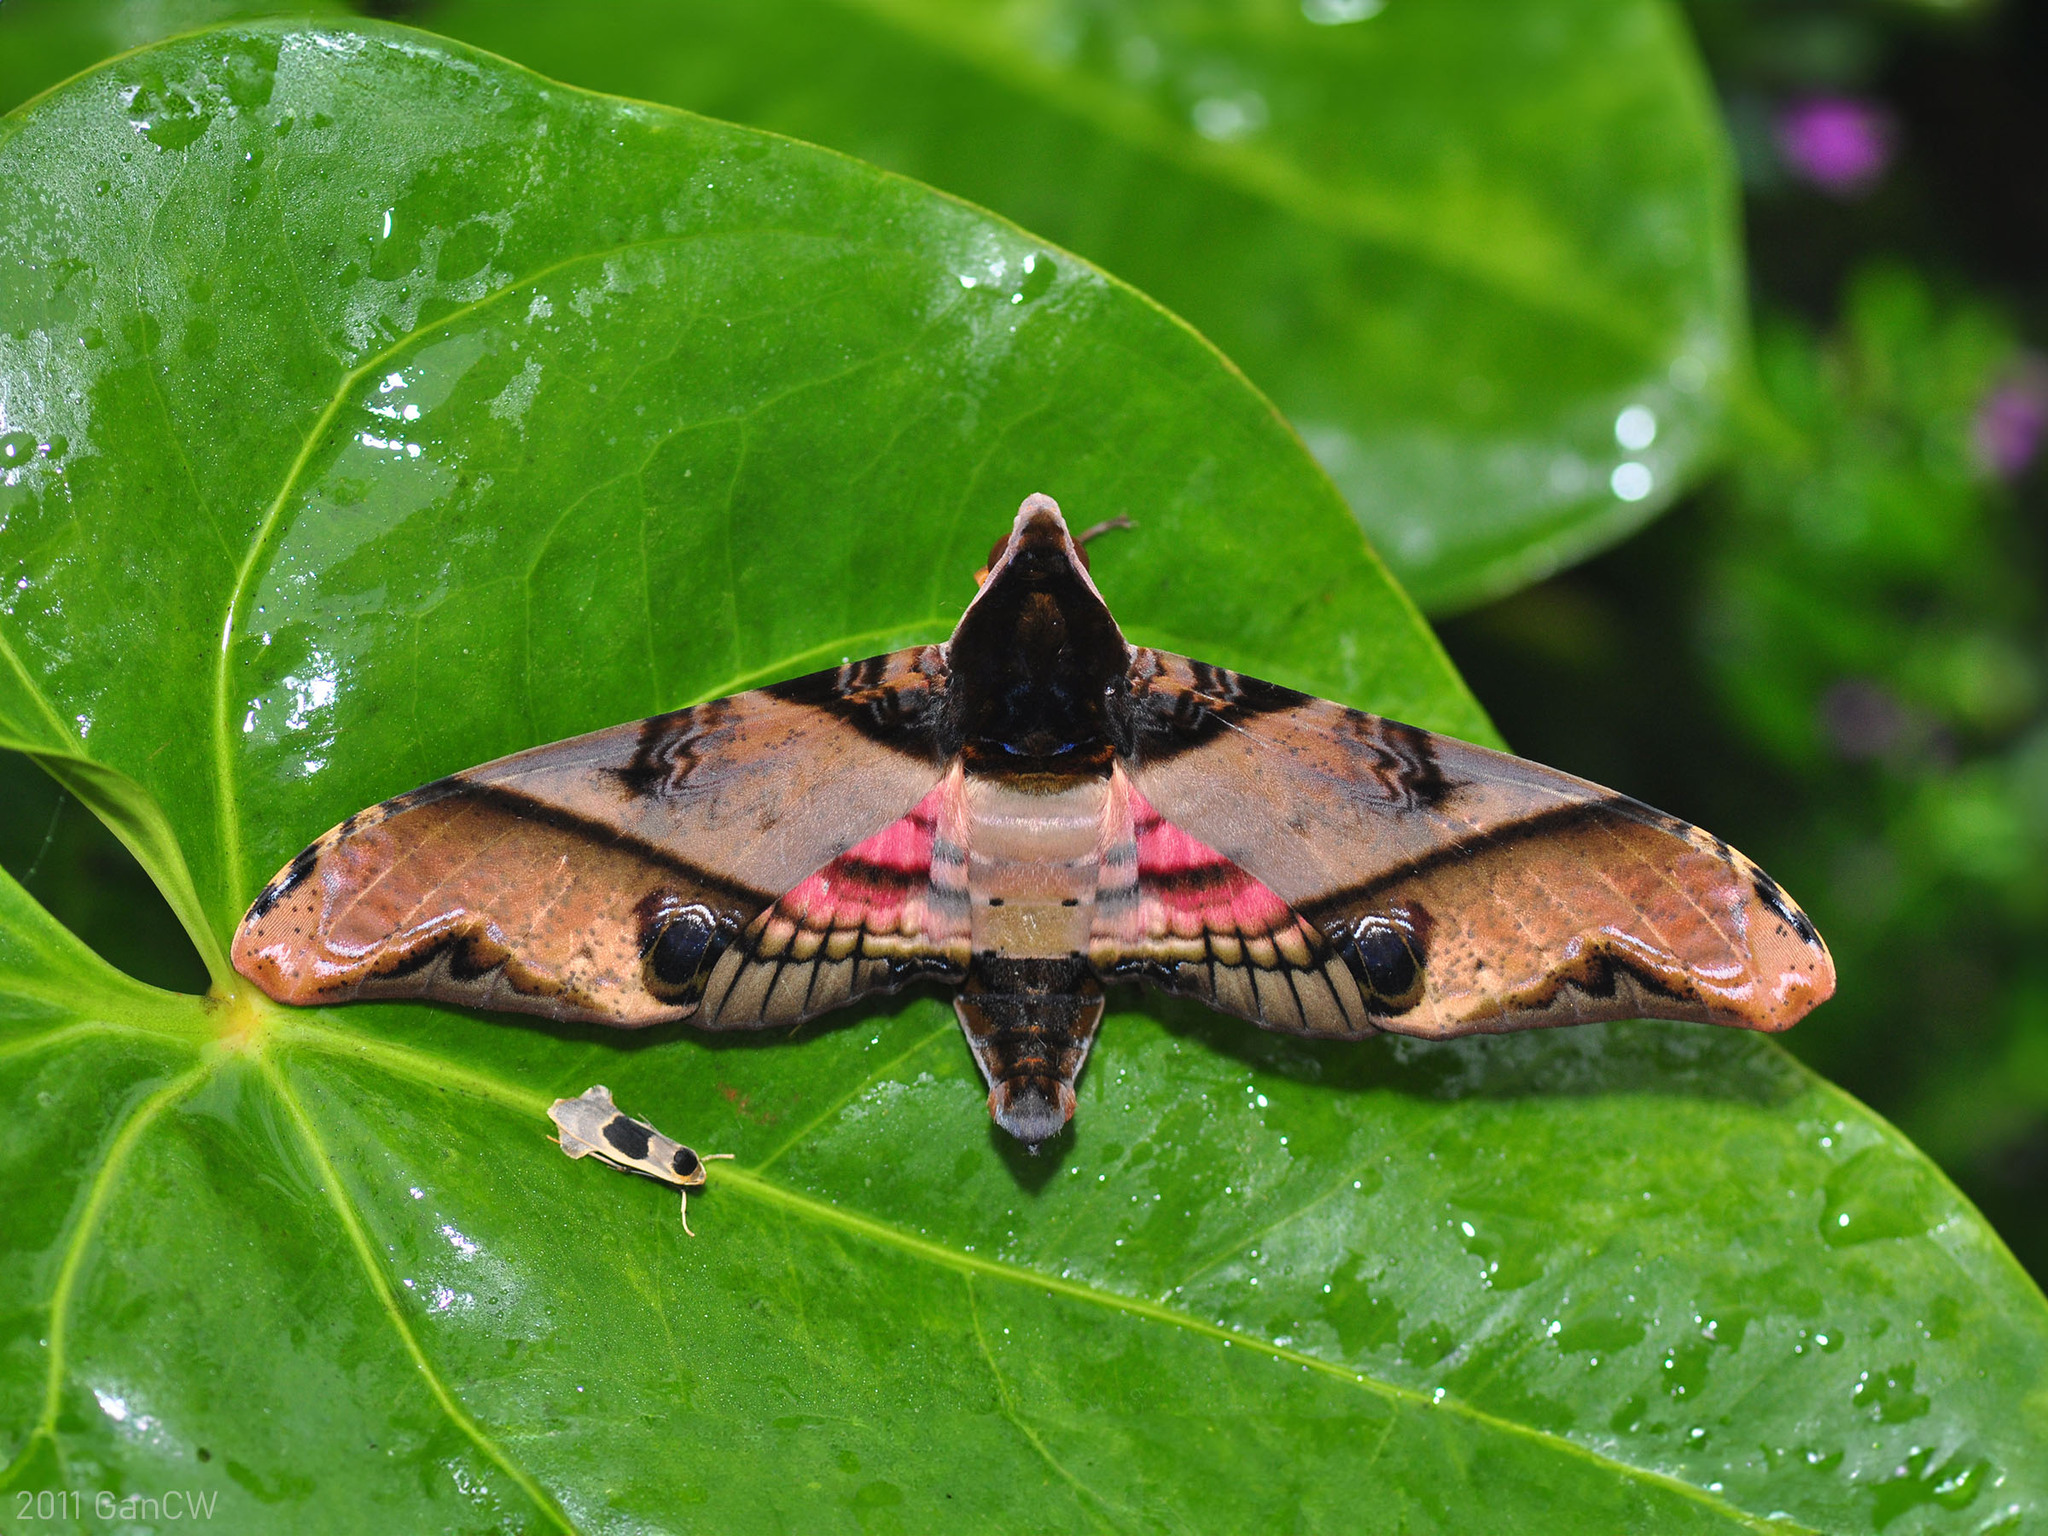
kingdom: Animalia
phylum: Arthropoda
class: Insecta
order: Lepidoptera
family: Sphingidae
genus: Amplypterus
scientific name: Amplypterus panopus
